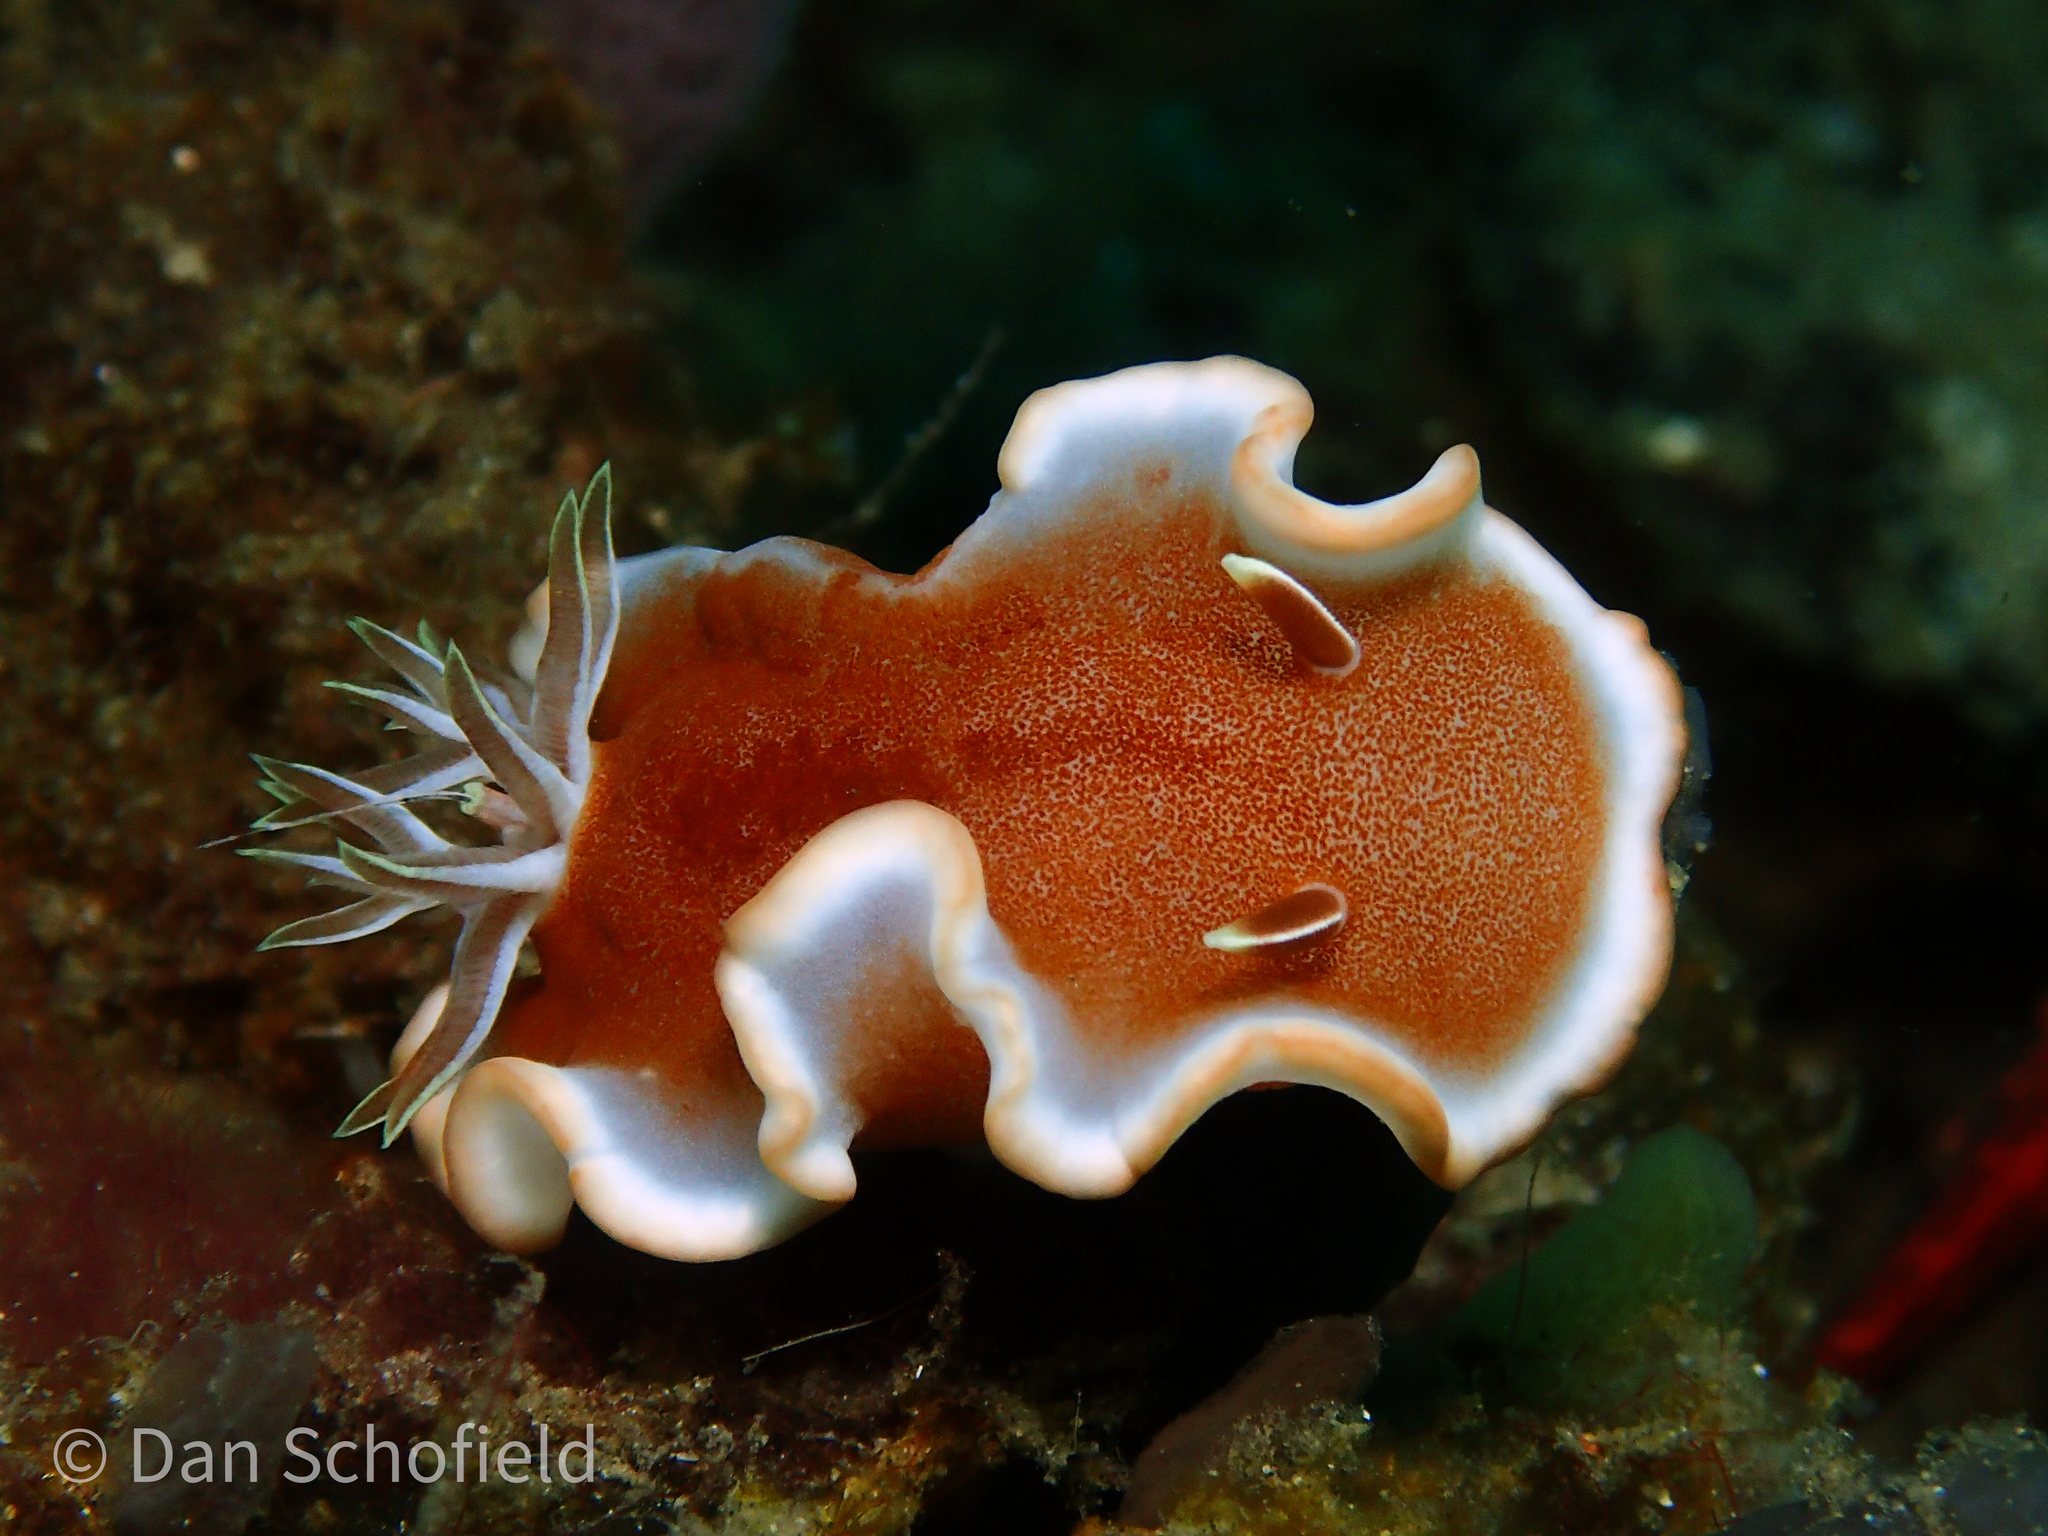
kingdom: Animalia
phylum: Mollusca
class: Gastropoda
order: Nudibranchia
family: Chromodorididae
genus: Glossodoris
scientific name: Glossodoris rufomarginata
